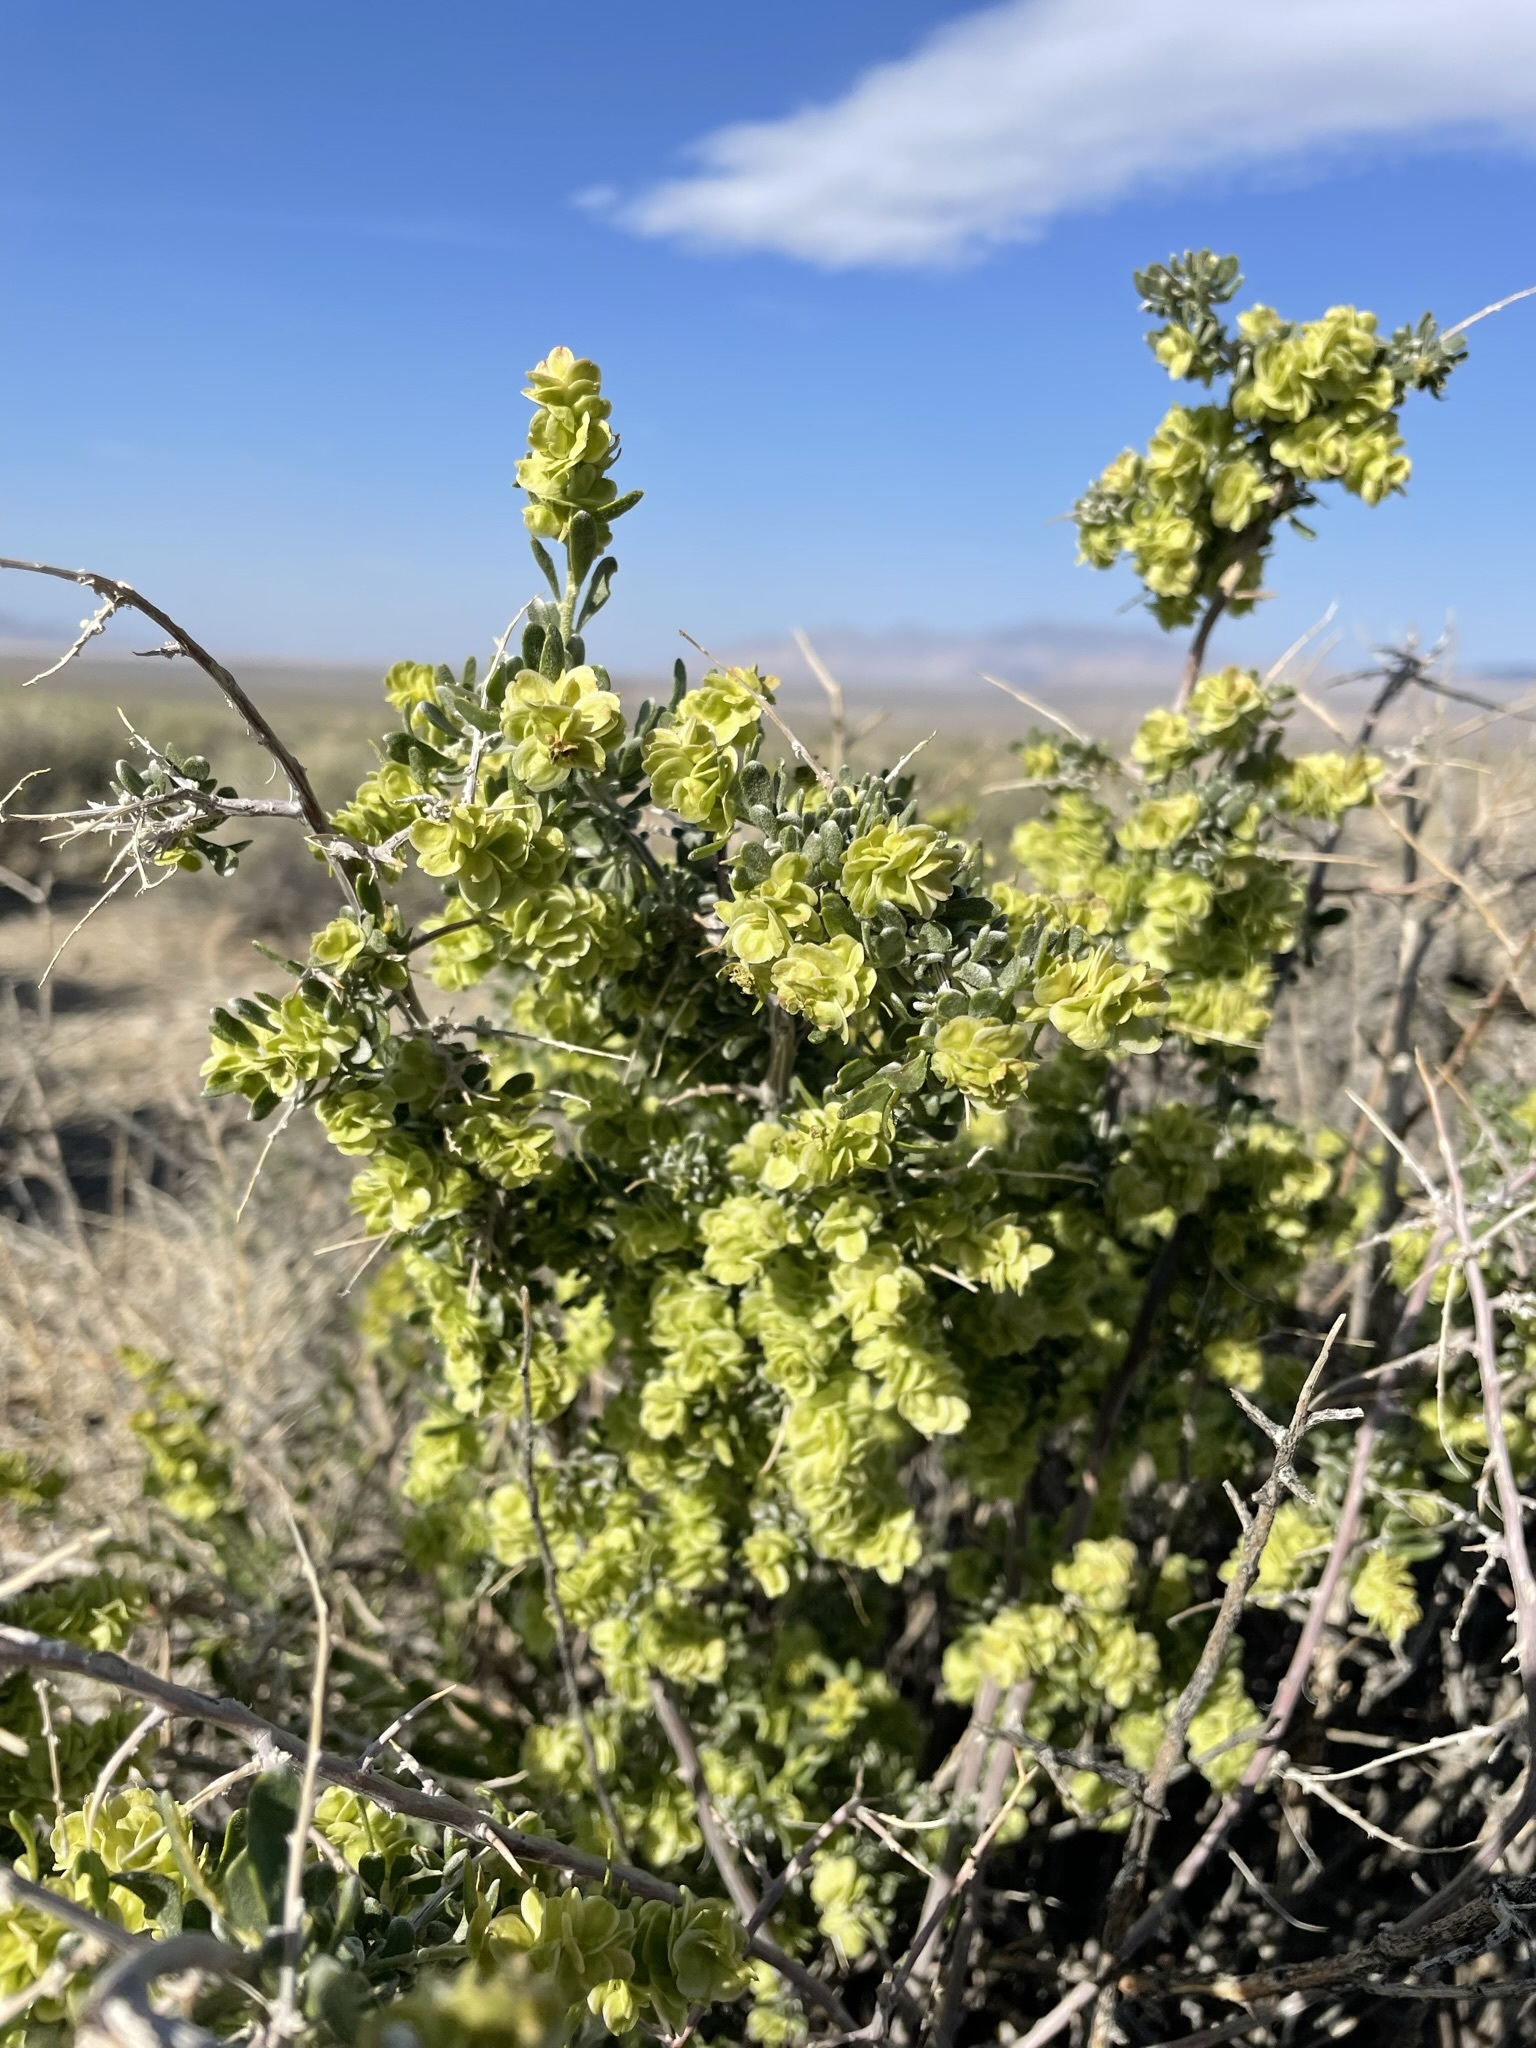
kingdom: Plantae
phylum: Tracheophyta
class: Magnoliopsida
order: Caryophyllales
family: Amaranthaceae
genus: Grayia
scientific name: Grayia spinosa
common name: Spiny hopsage
